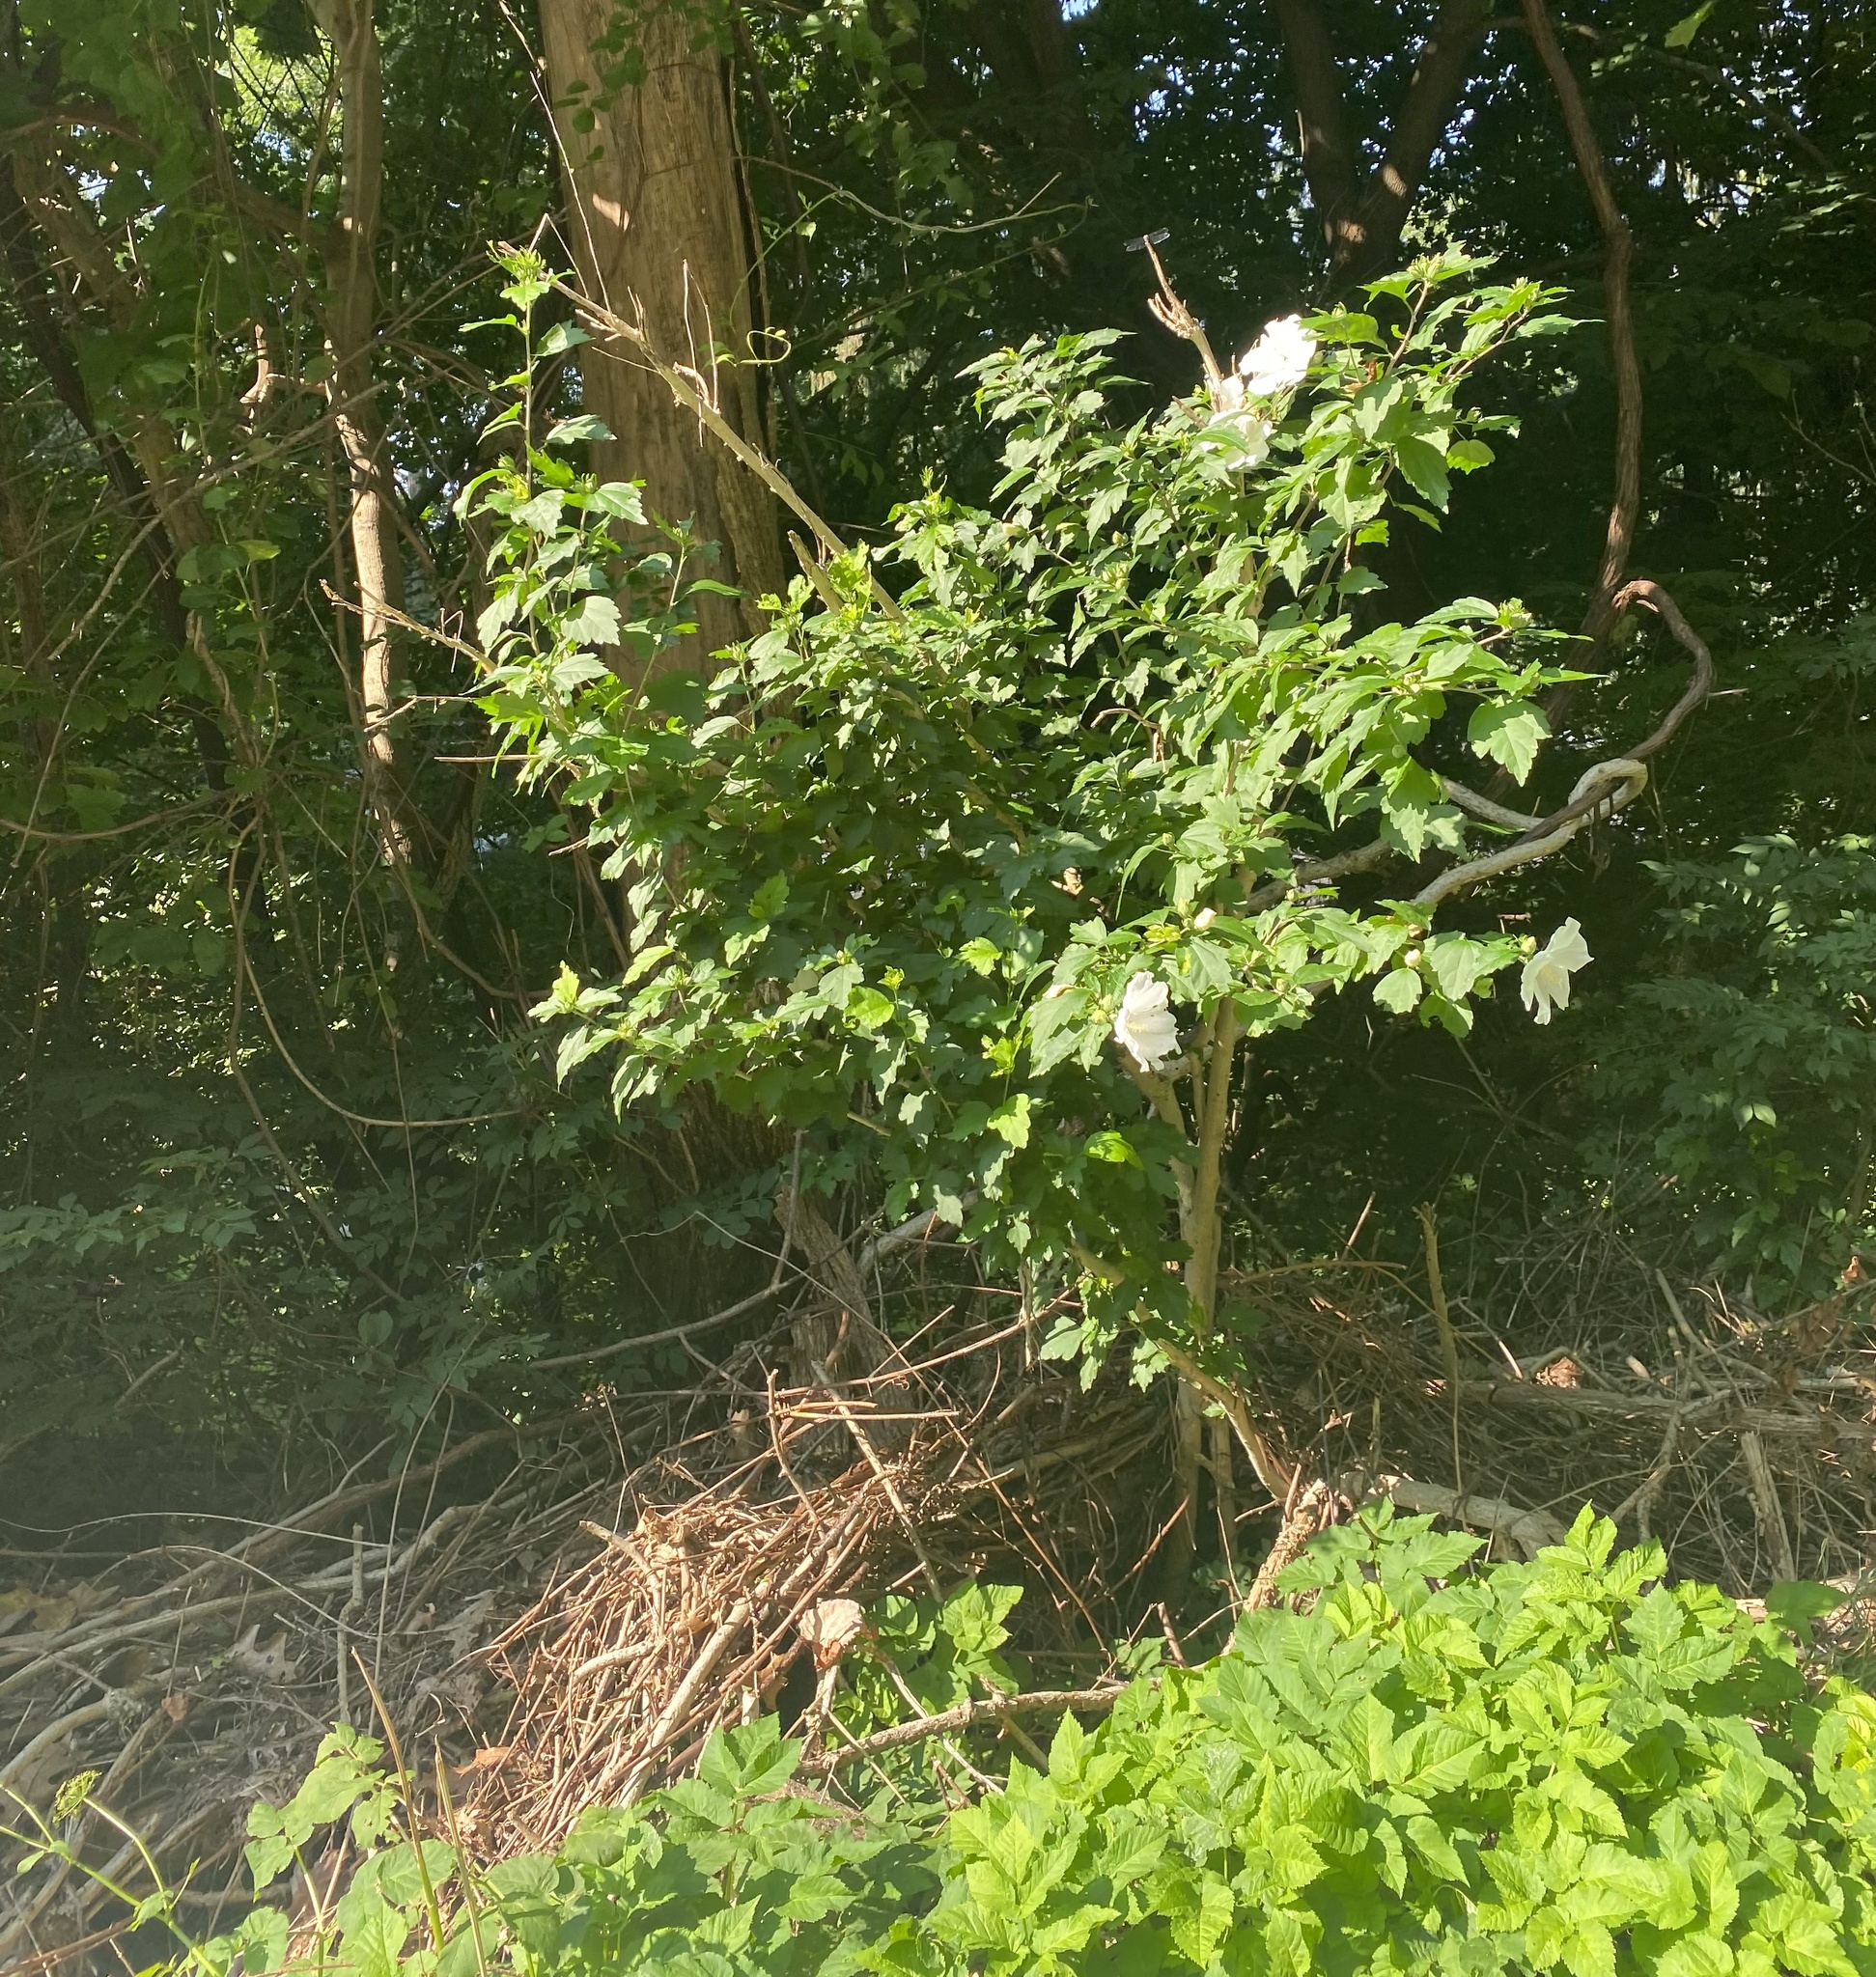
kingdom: Plantae
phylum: Tracheophyta
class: Magnoliopsida
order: Malvales
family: Malvaceae
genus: Hibiscus
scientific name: Hibiscus syriacus
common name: Syrian ketmia
